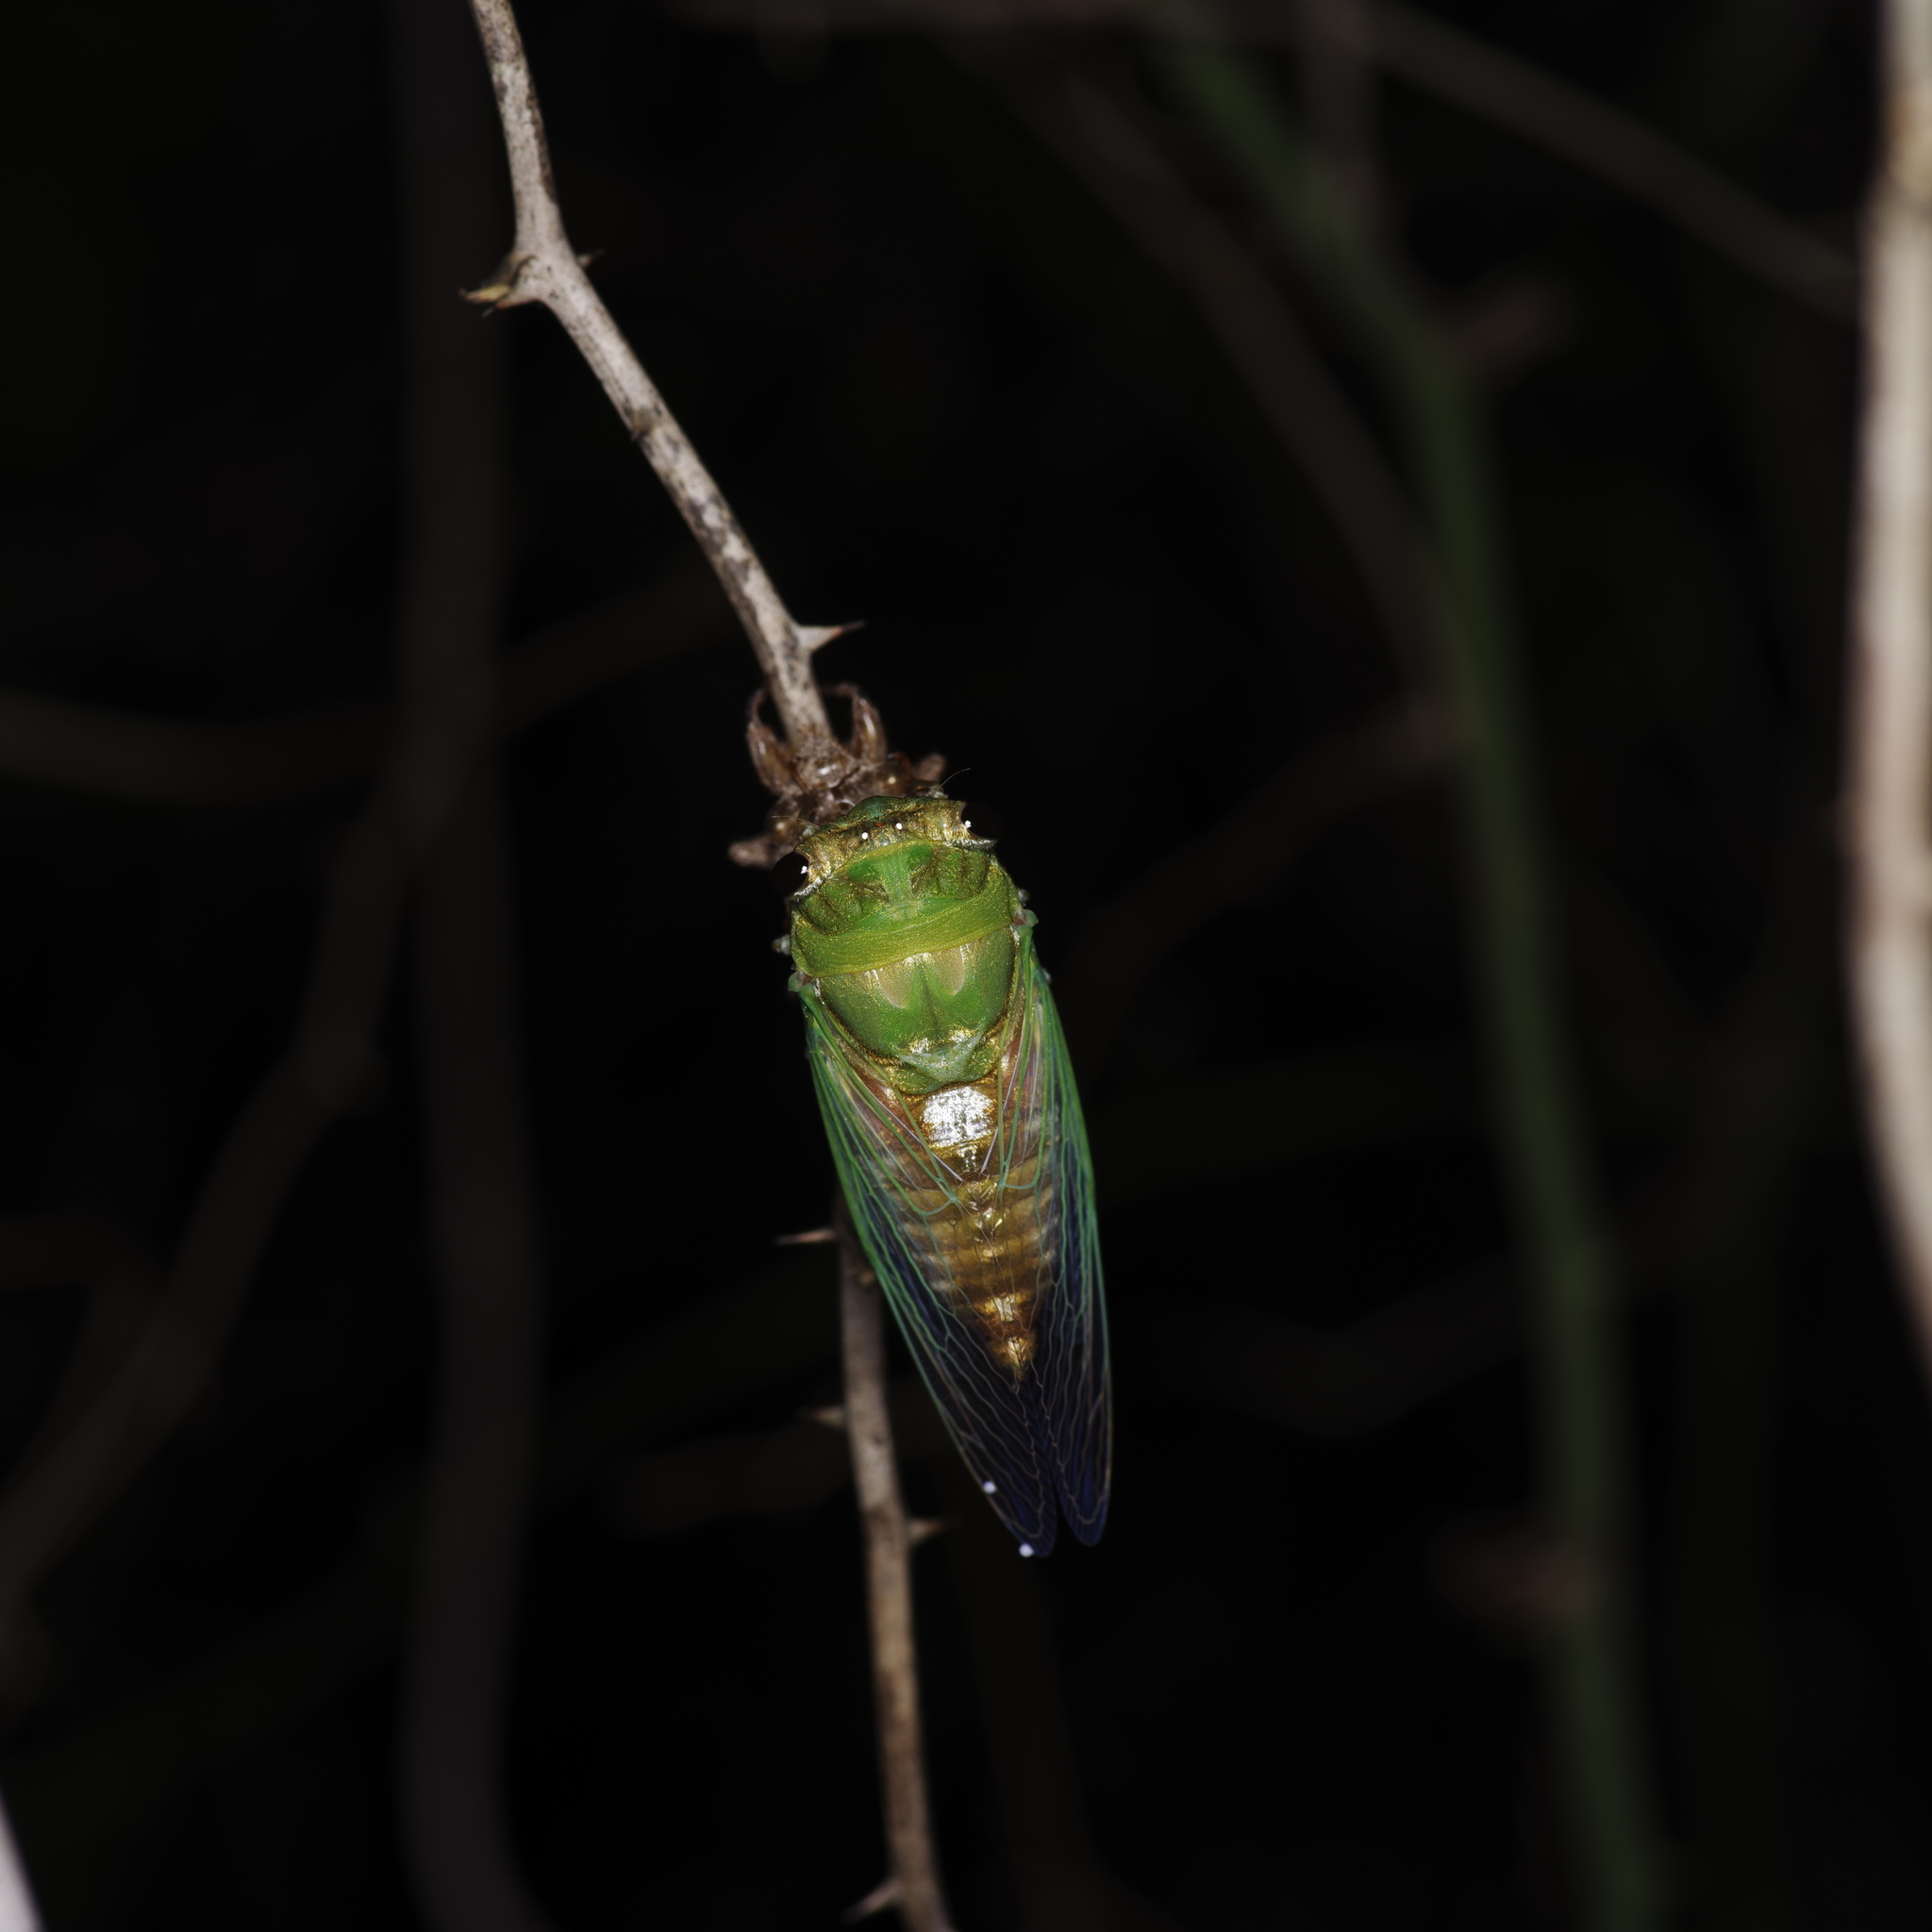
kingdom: Animalia
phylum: Arthropoda
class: Insecta
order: Hemiptera
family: Cicadidae
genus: Neotibicen
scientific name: Neotibicen superbus
